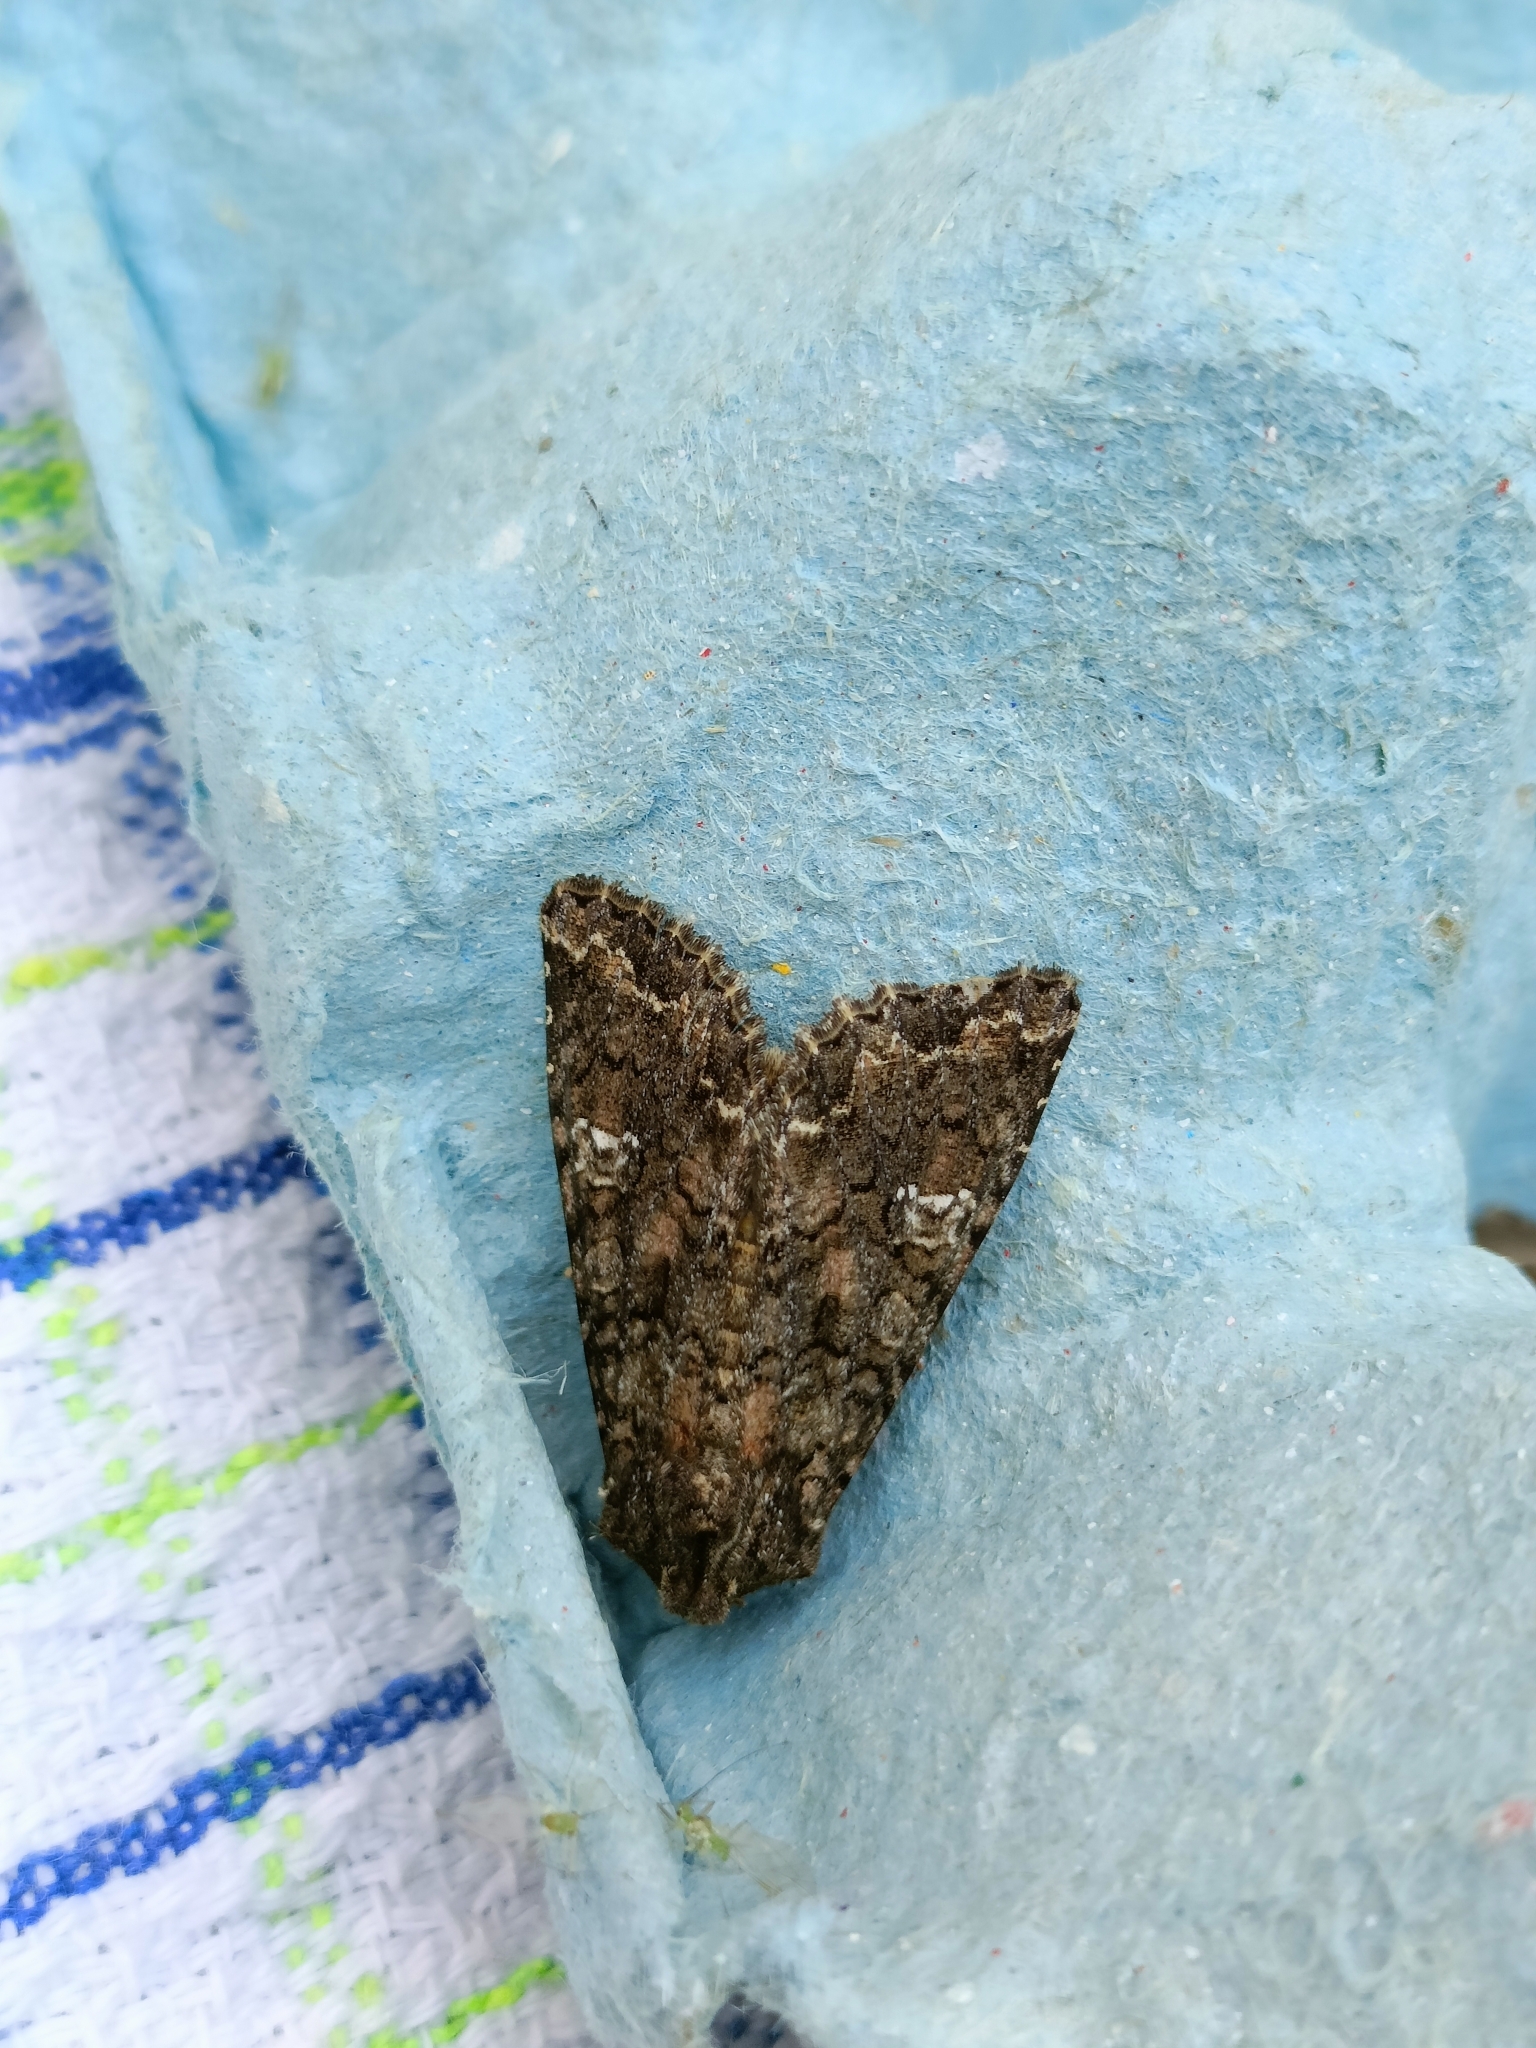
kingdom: Animalia
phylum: Arthropoda
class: Insecta
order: Lepidoptera
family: Noctuidae
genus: Mamestra
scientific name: Mamestra brassicae
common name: Cabbage moth
